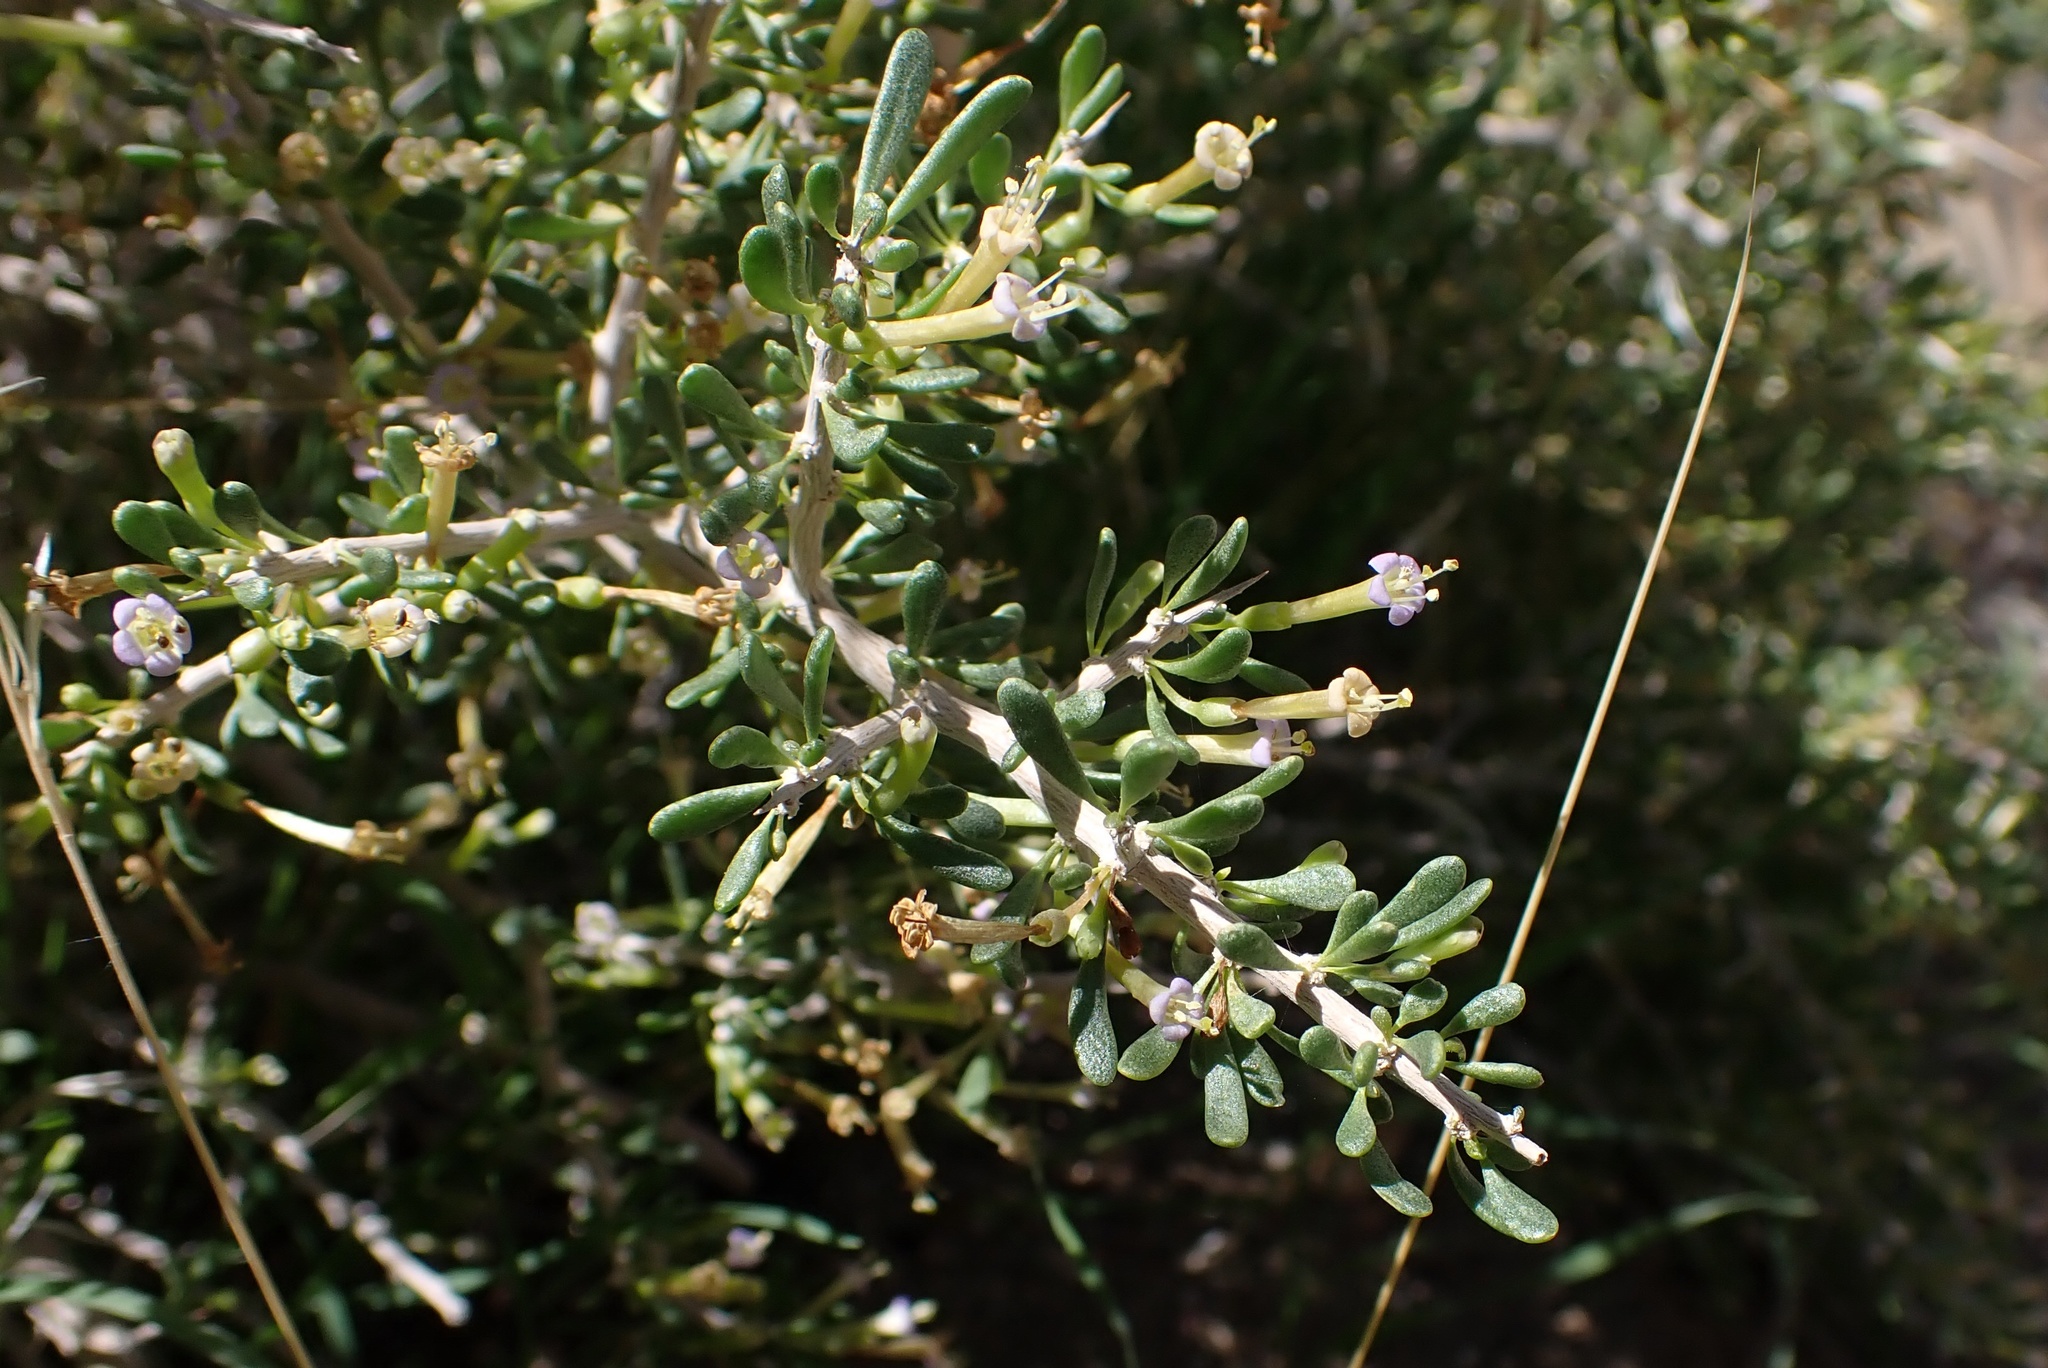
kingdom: Plantae
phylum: Tracheophyta
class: Magnoliopsida
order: Solanales
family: Solanaceae
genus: Lycium
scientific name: Lycium andersonii
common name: Water-jacket
